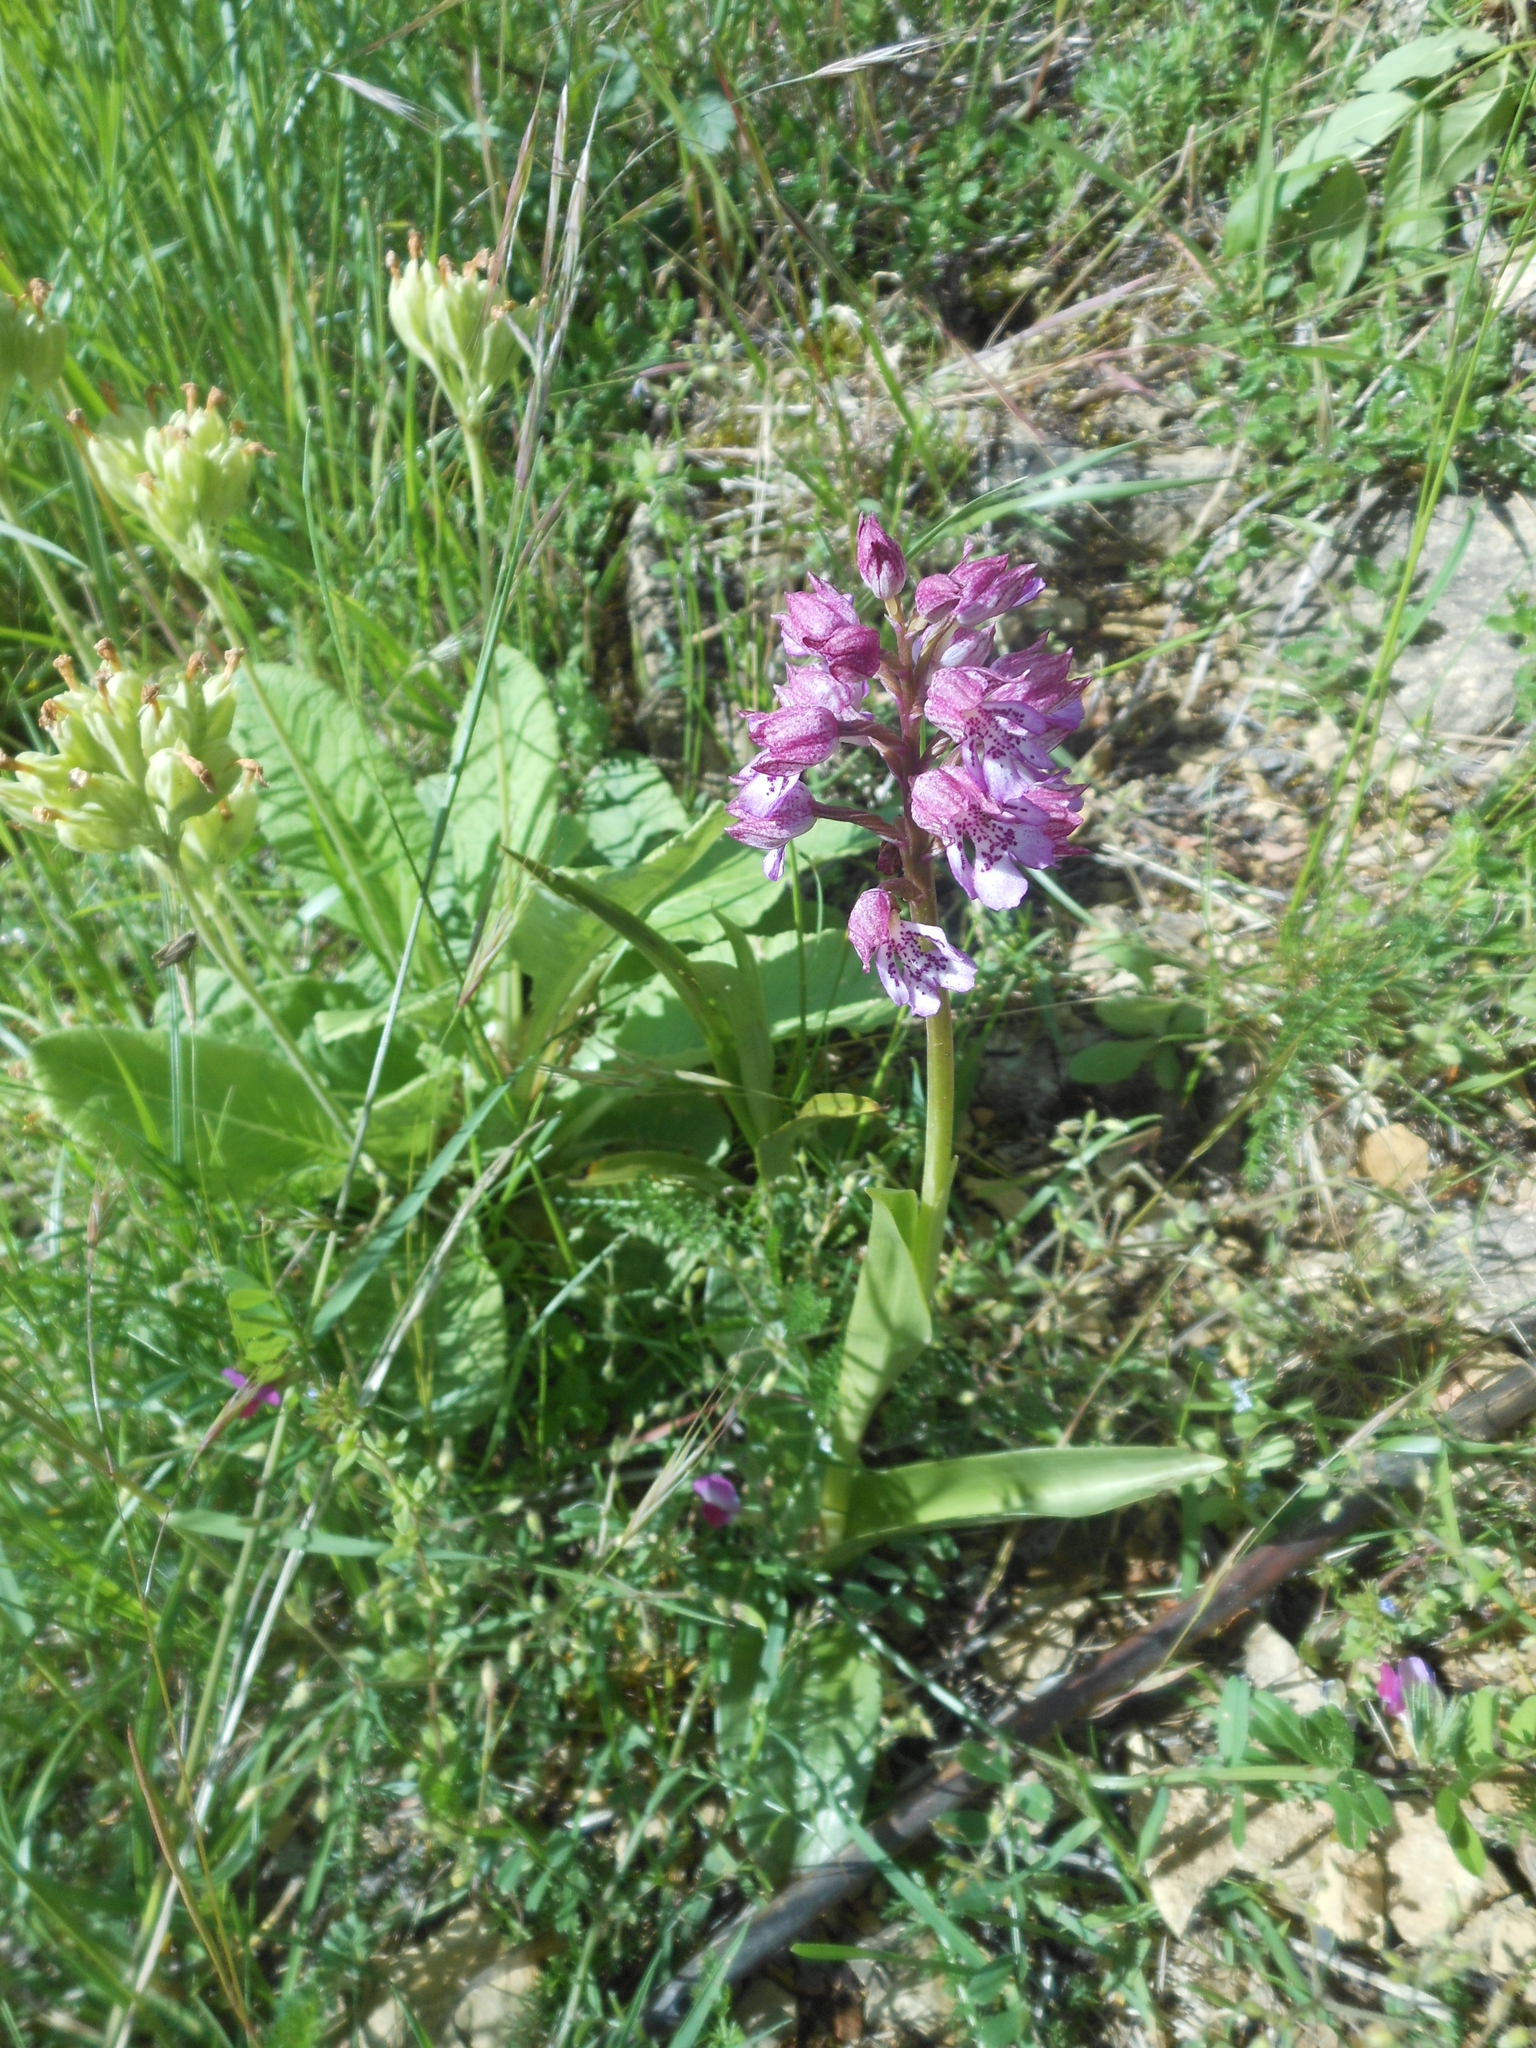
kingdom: Plantae
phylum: Tracheophyta
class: Liliopsida
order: Asparagales
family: Orchidaceae
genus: Orchis
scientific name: Orchis purpurea
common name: Lady orchid
